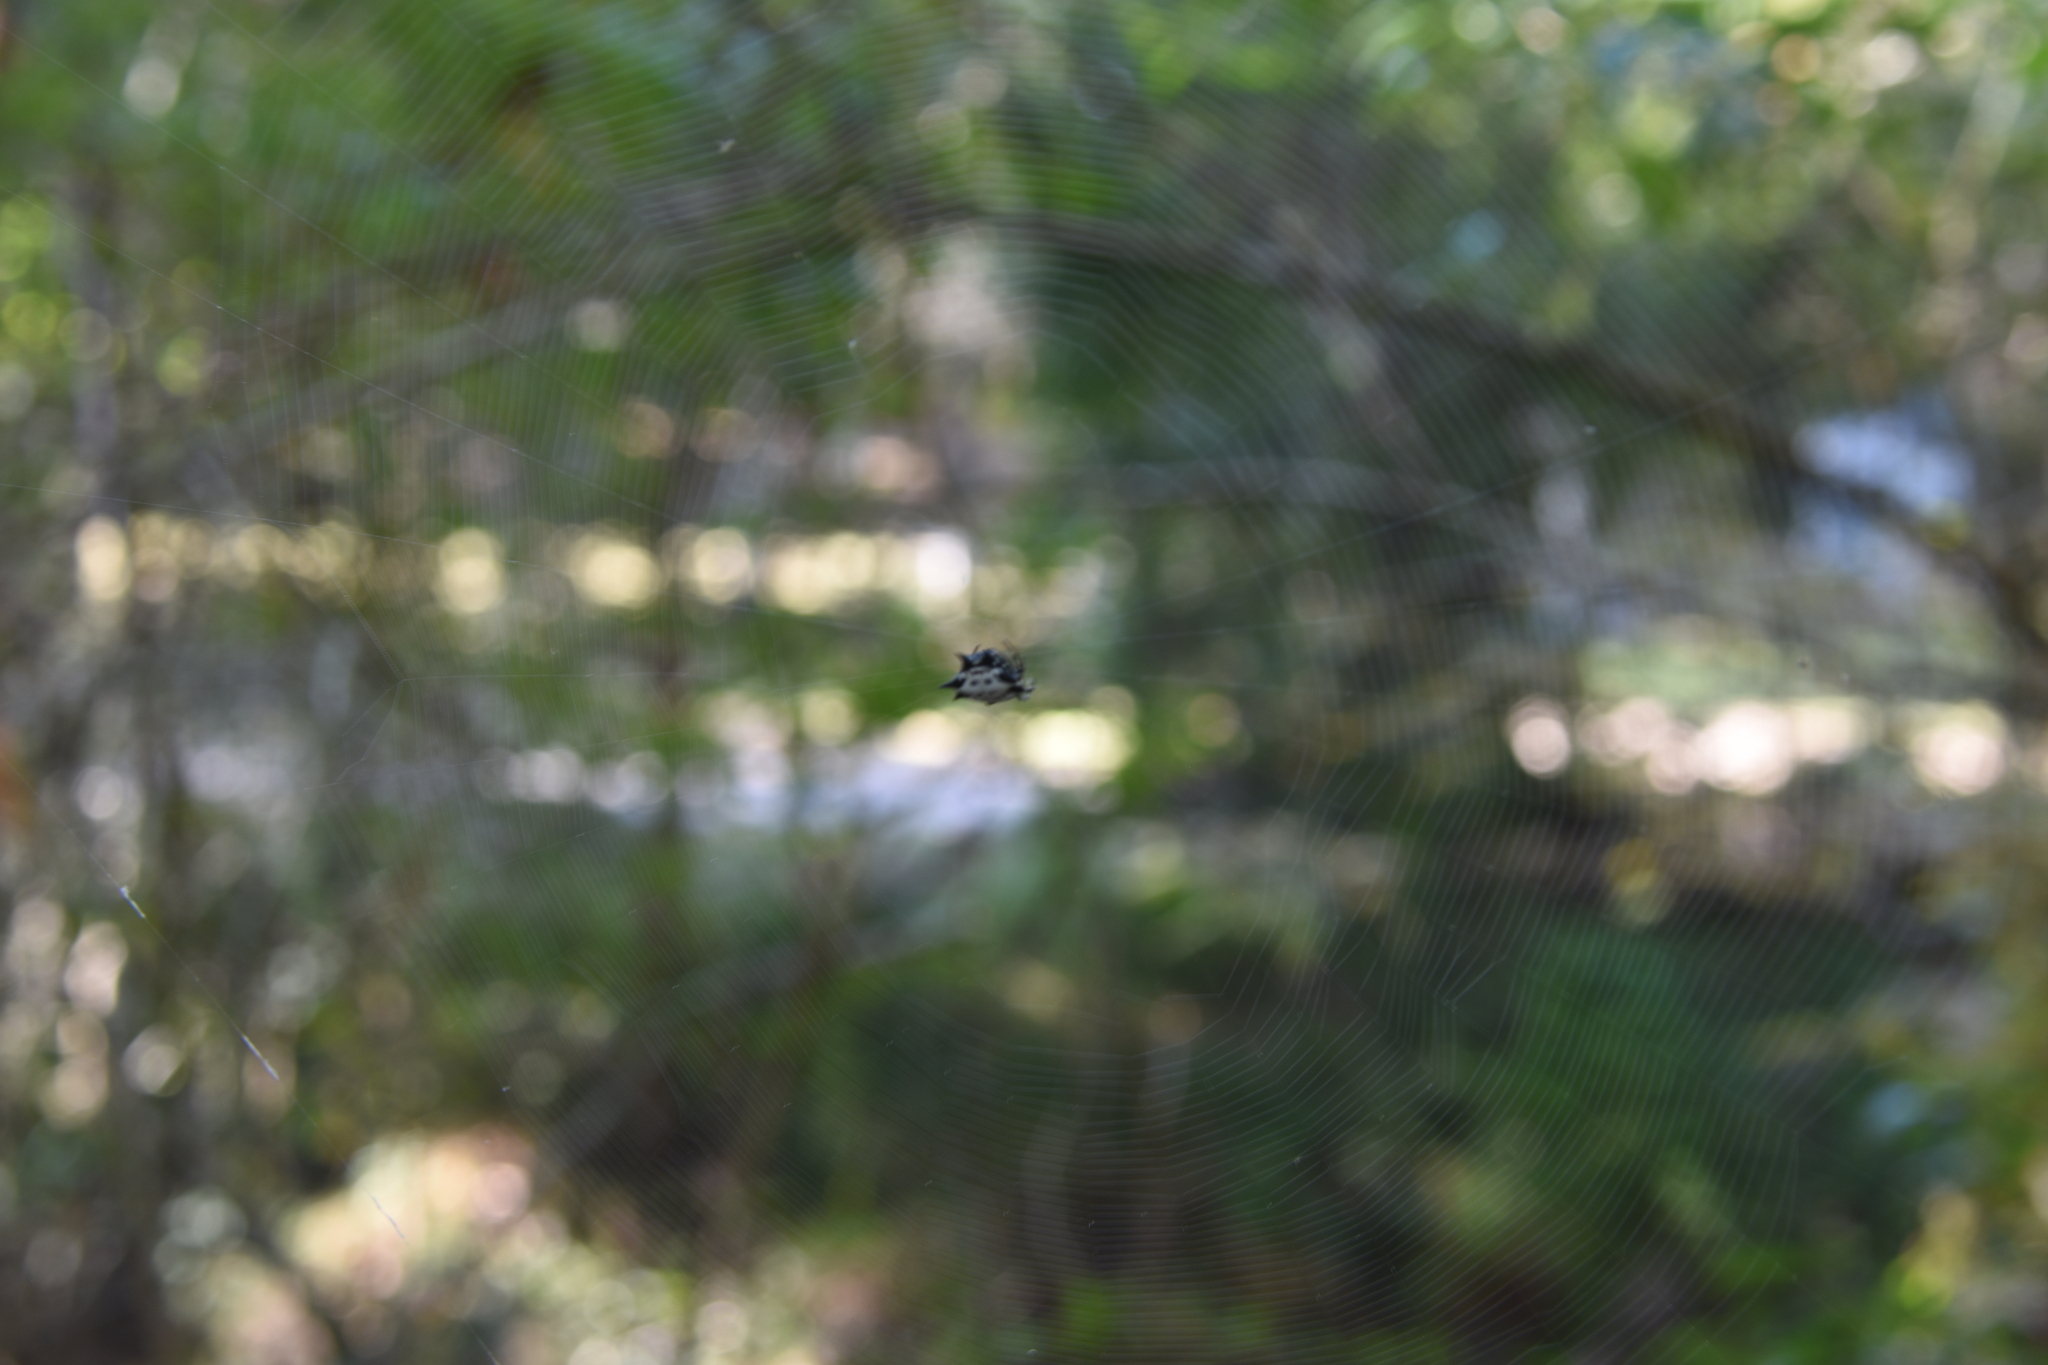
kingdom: Animalia
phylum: Arthropoda
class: Arachnida
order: Araneae
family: Araneidae
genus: Gasteracantha
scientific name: Gasteracantha cancriformis
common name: Orb weavers
